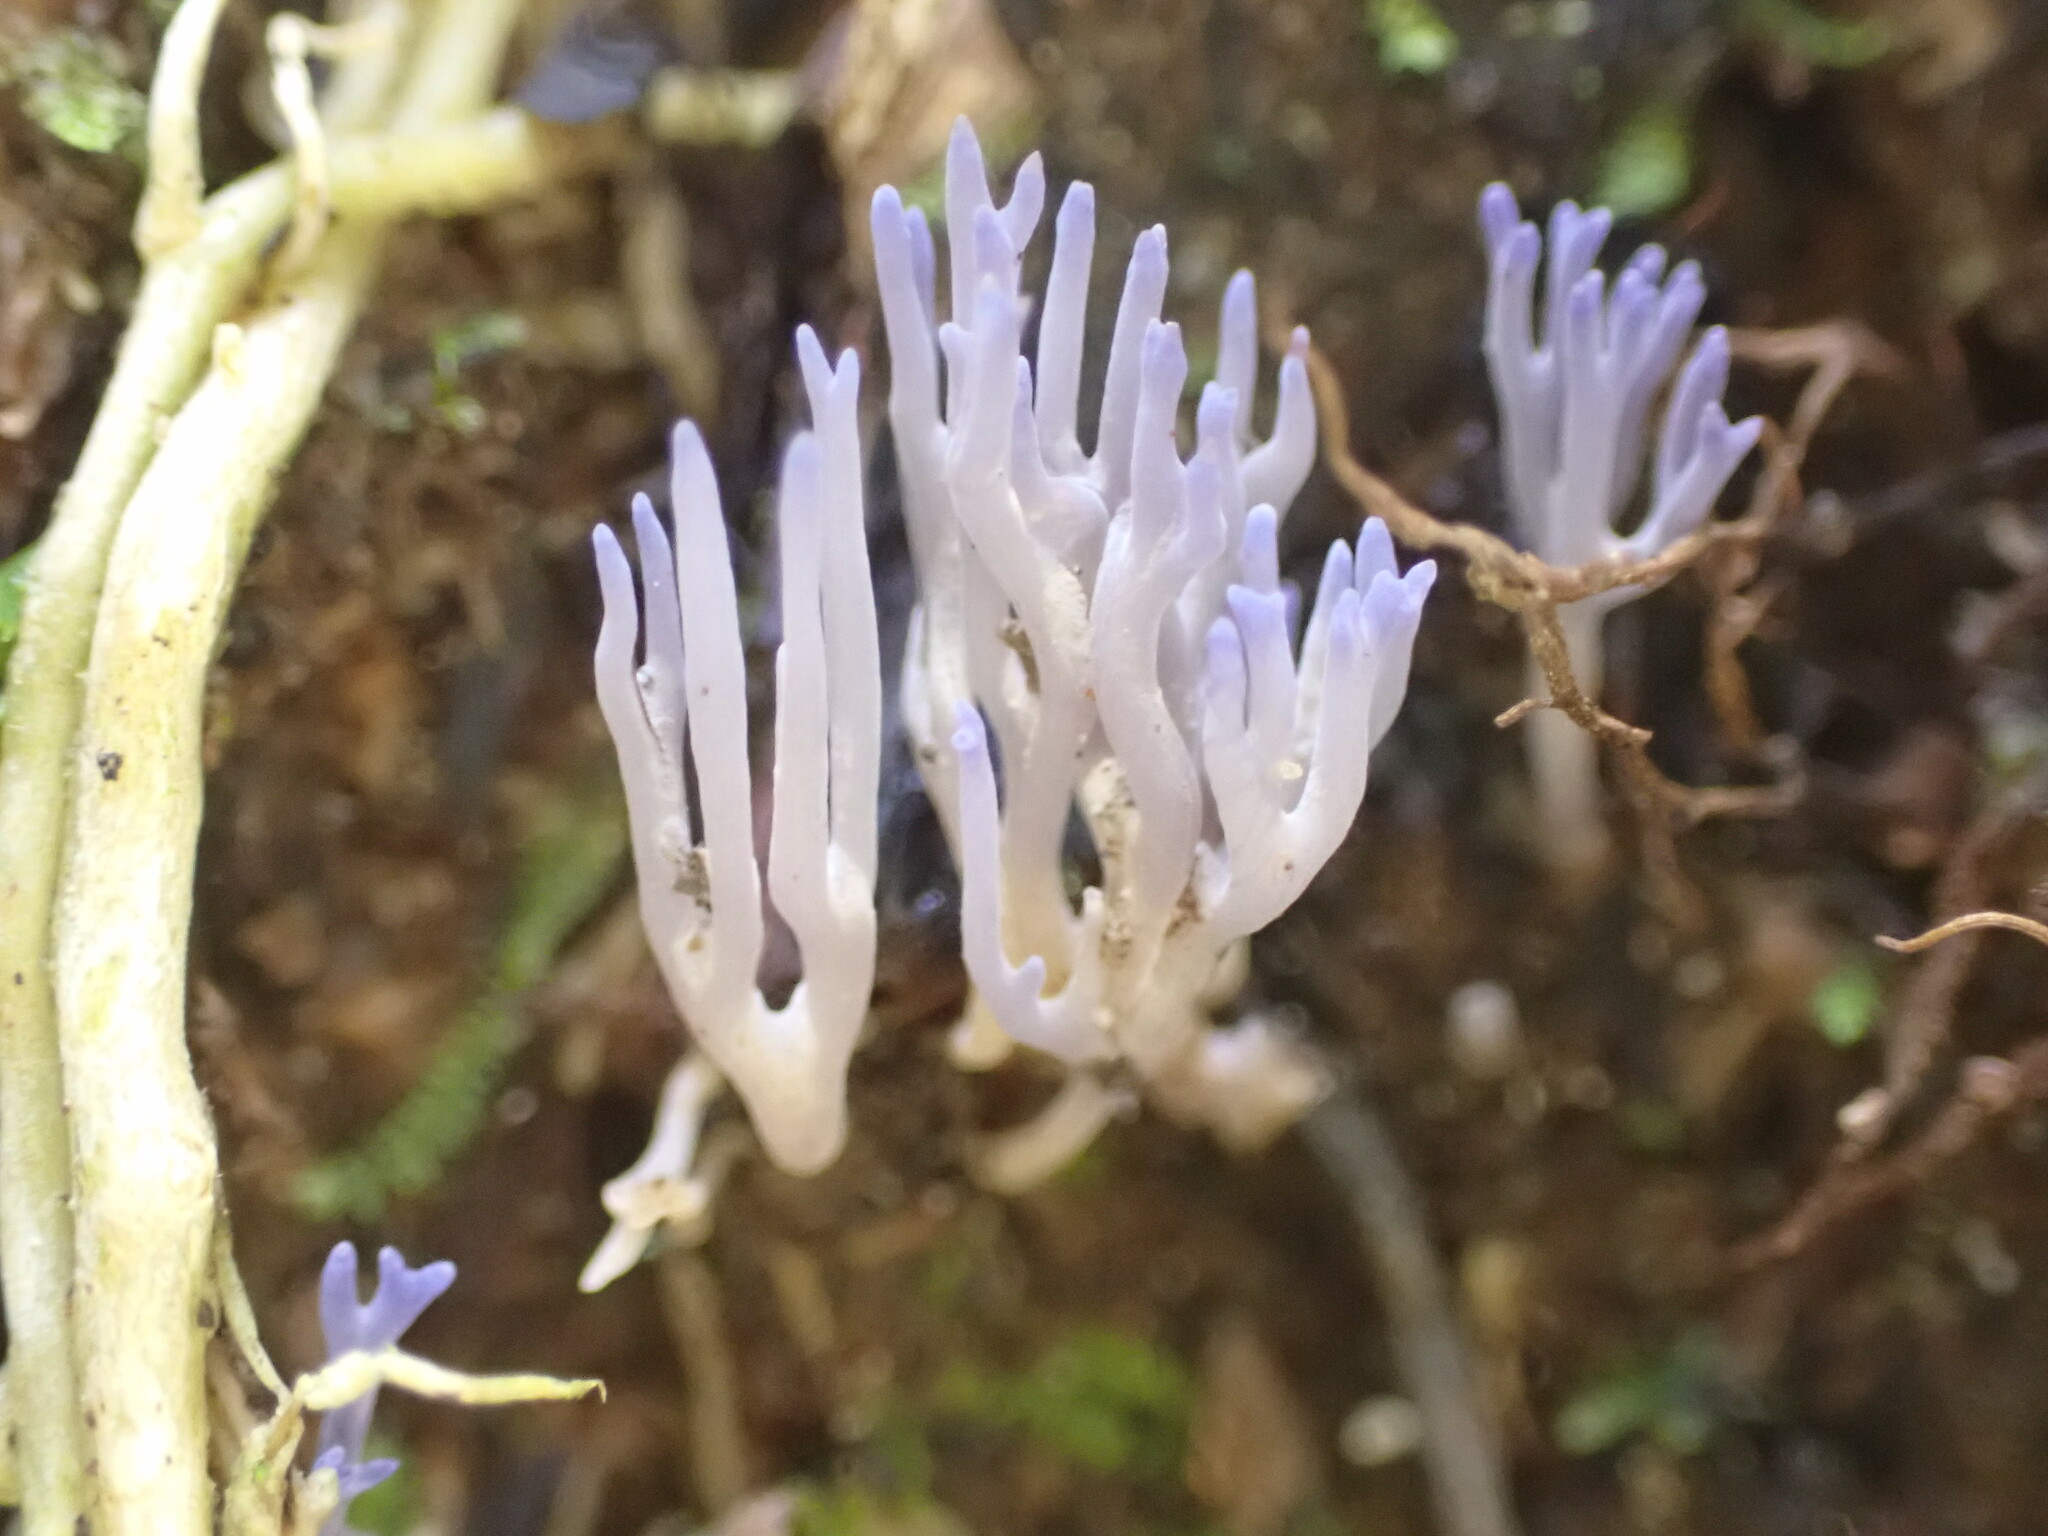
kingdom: Fungi
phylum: Basidiomycota
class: Agaricomycetes
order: Agaricales
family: Clavariaceae
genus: Ramariopsis
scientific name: Ramariopsis pulchella
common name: Lilac coral
